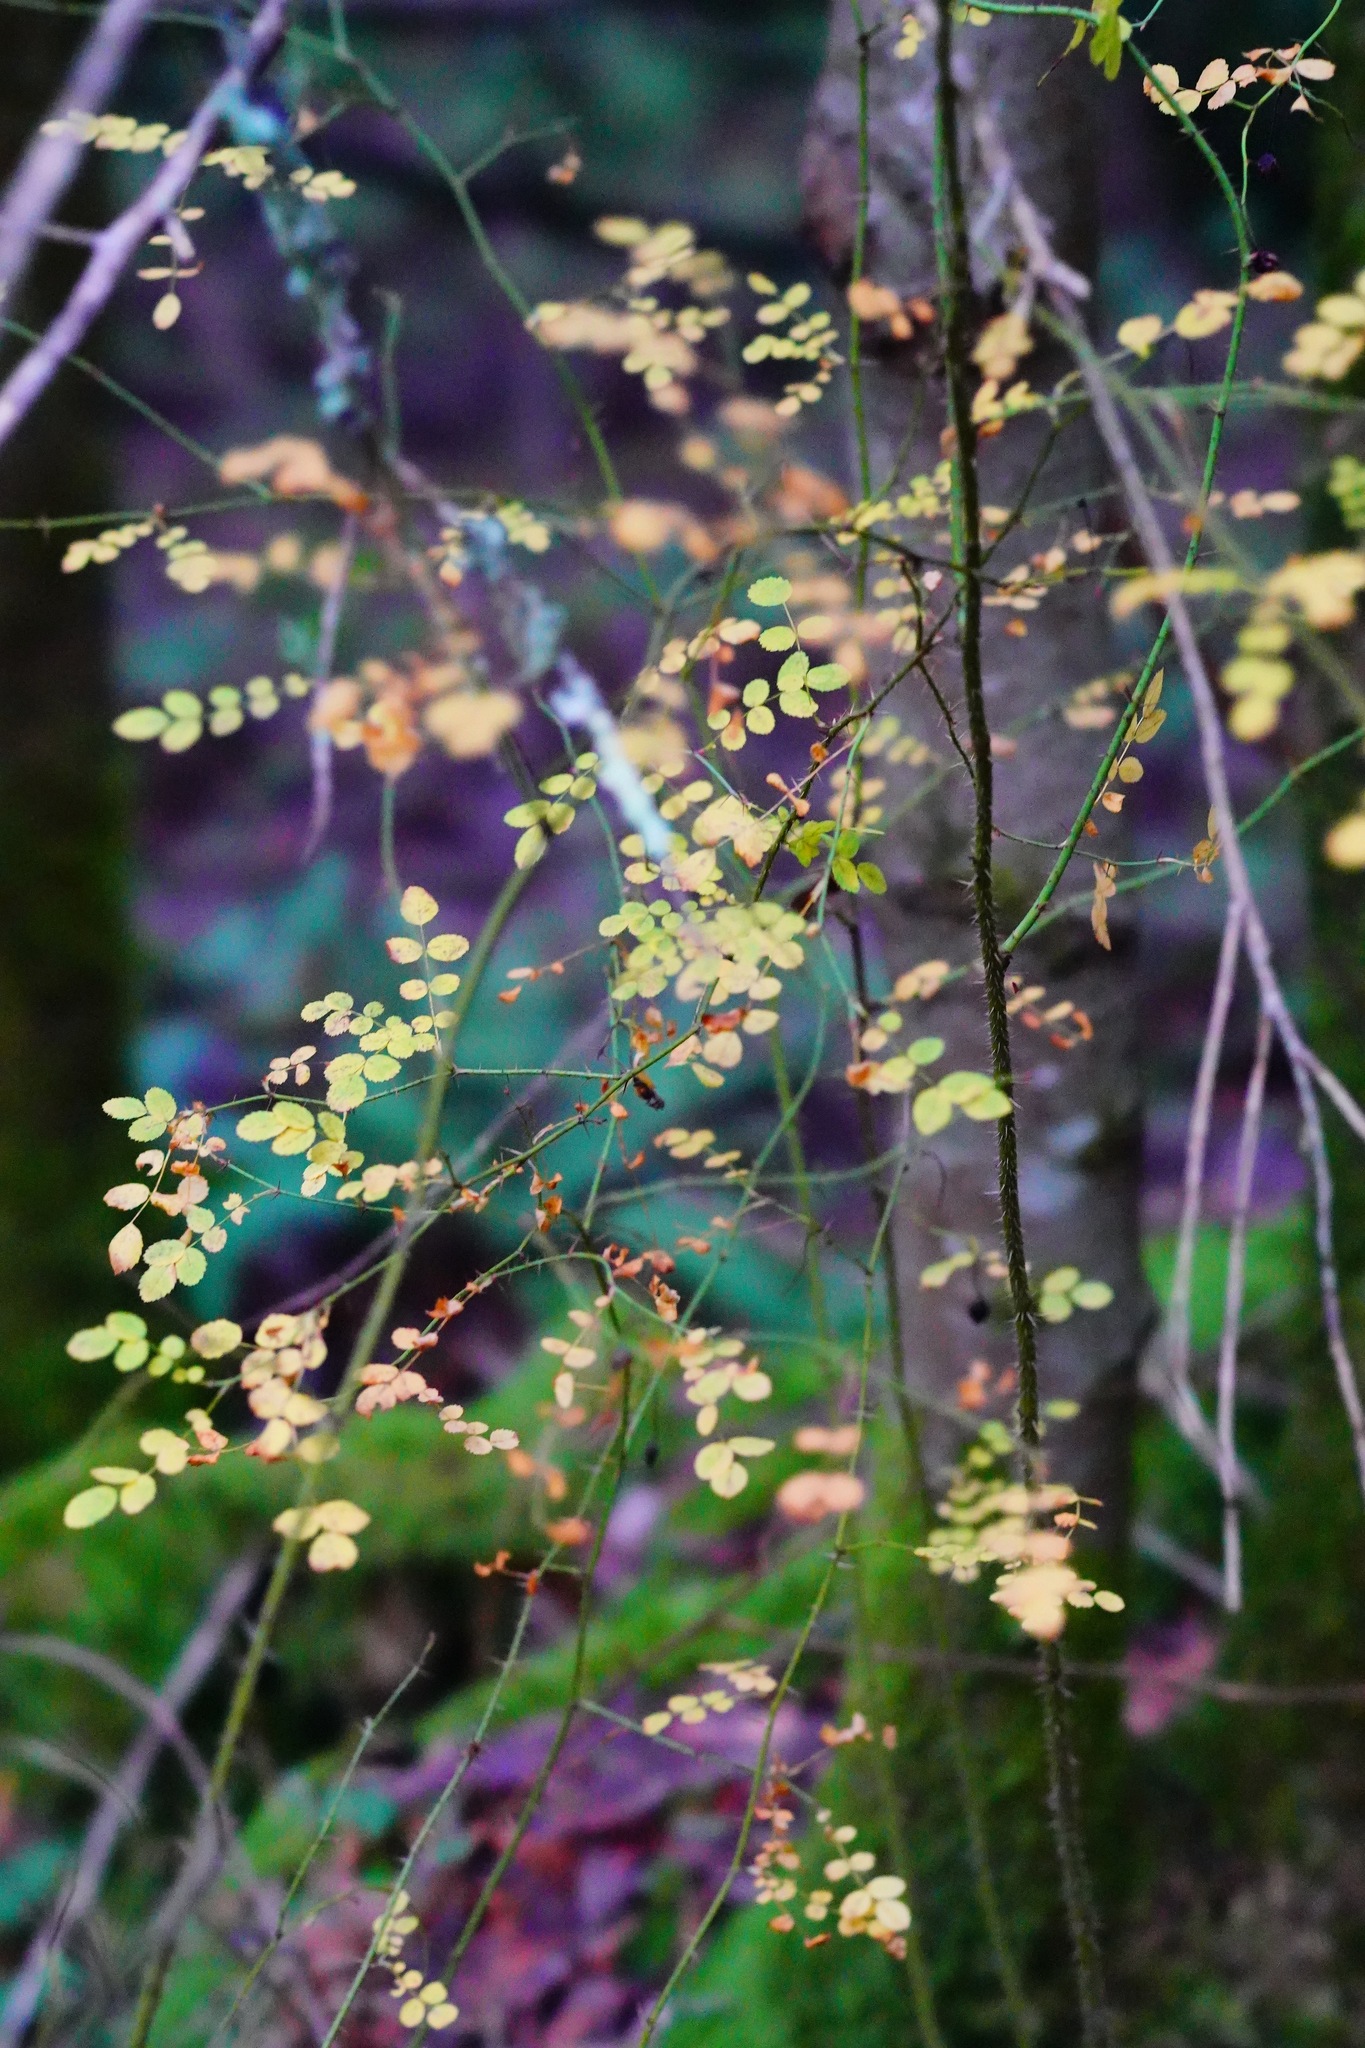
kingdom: Plantae
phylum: Tracheophyta
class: Magnoliopsida
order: Rosales
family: Rosaceae
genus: Rosa
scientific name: Rosa gymnocarpa
